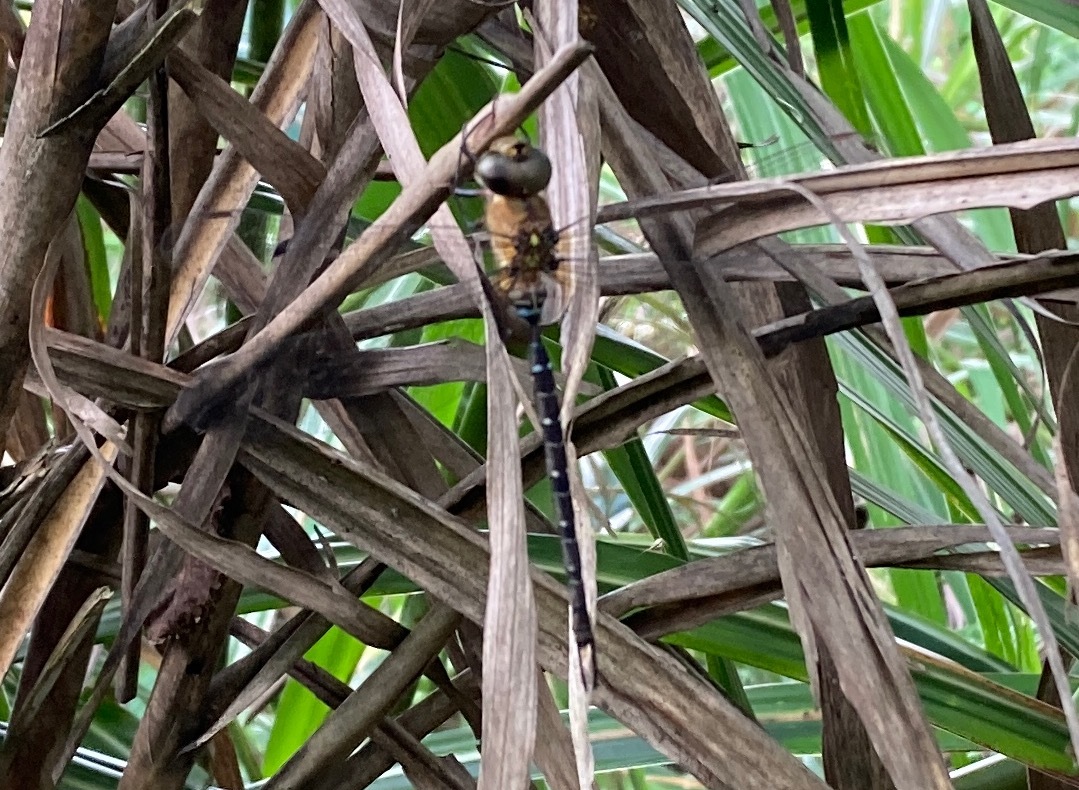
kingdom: Animalia
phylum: Arthropoda
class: Insecta
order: Odonata
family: Aeshnidae
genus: Gynacantha
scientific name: Gynacantha japonica
